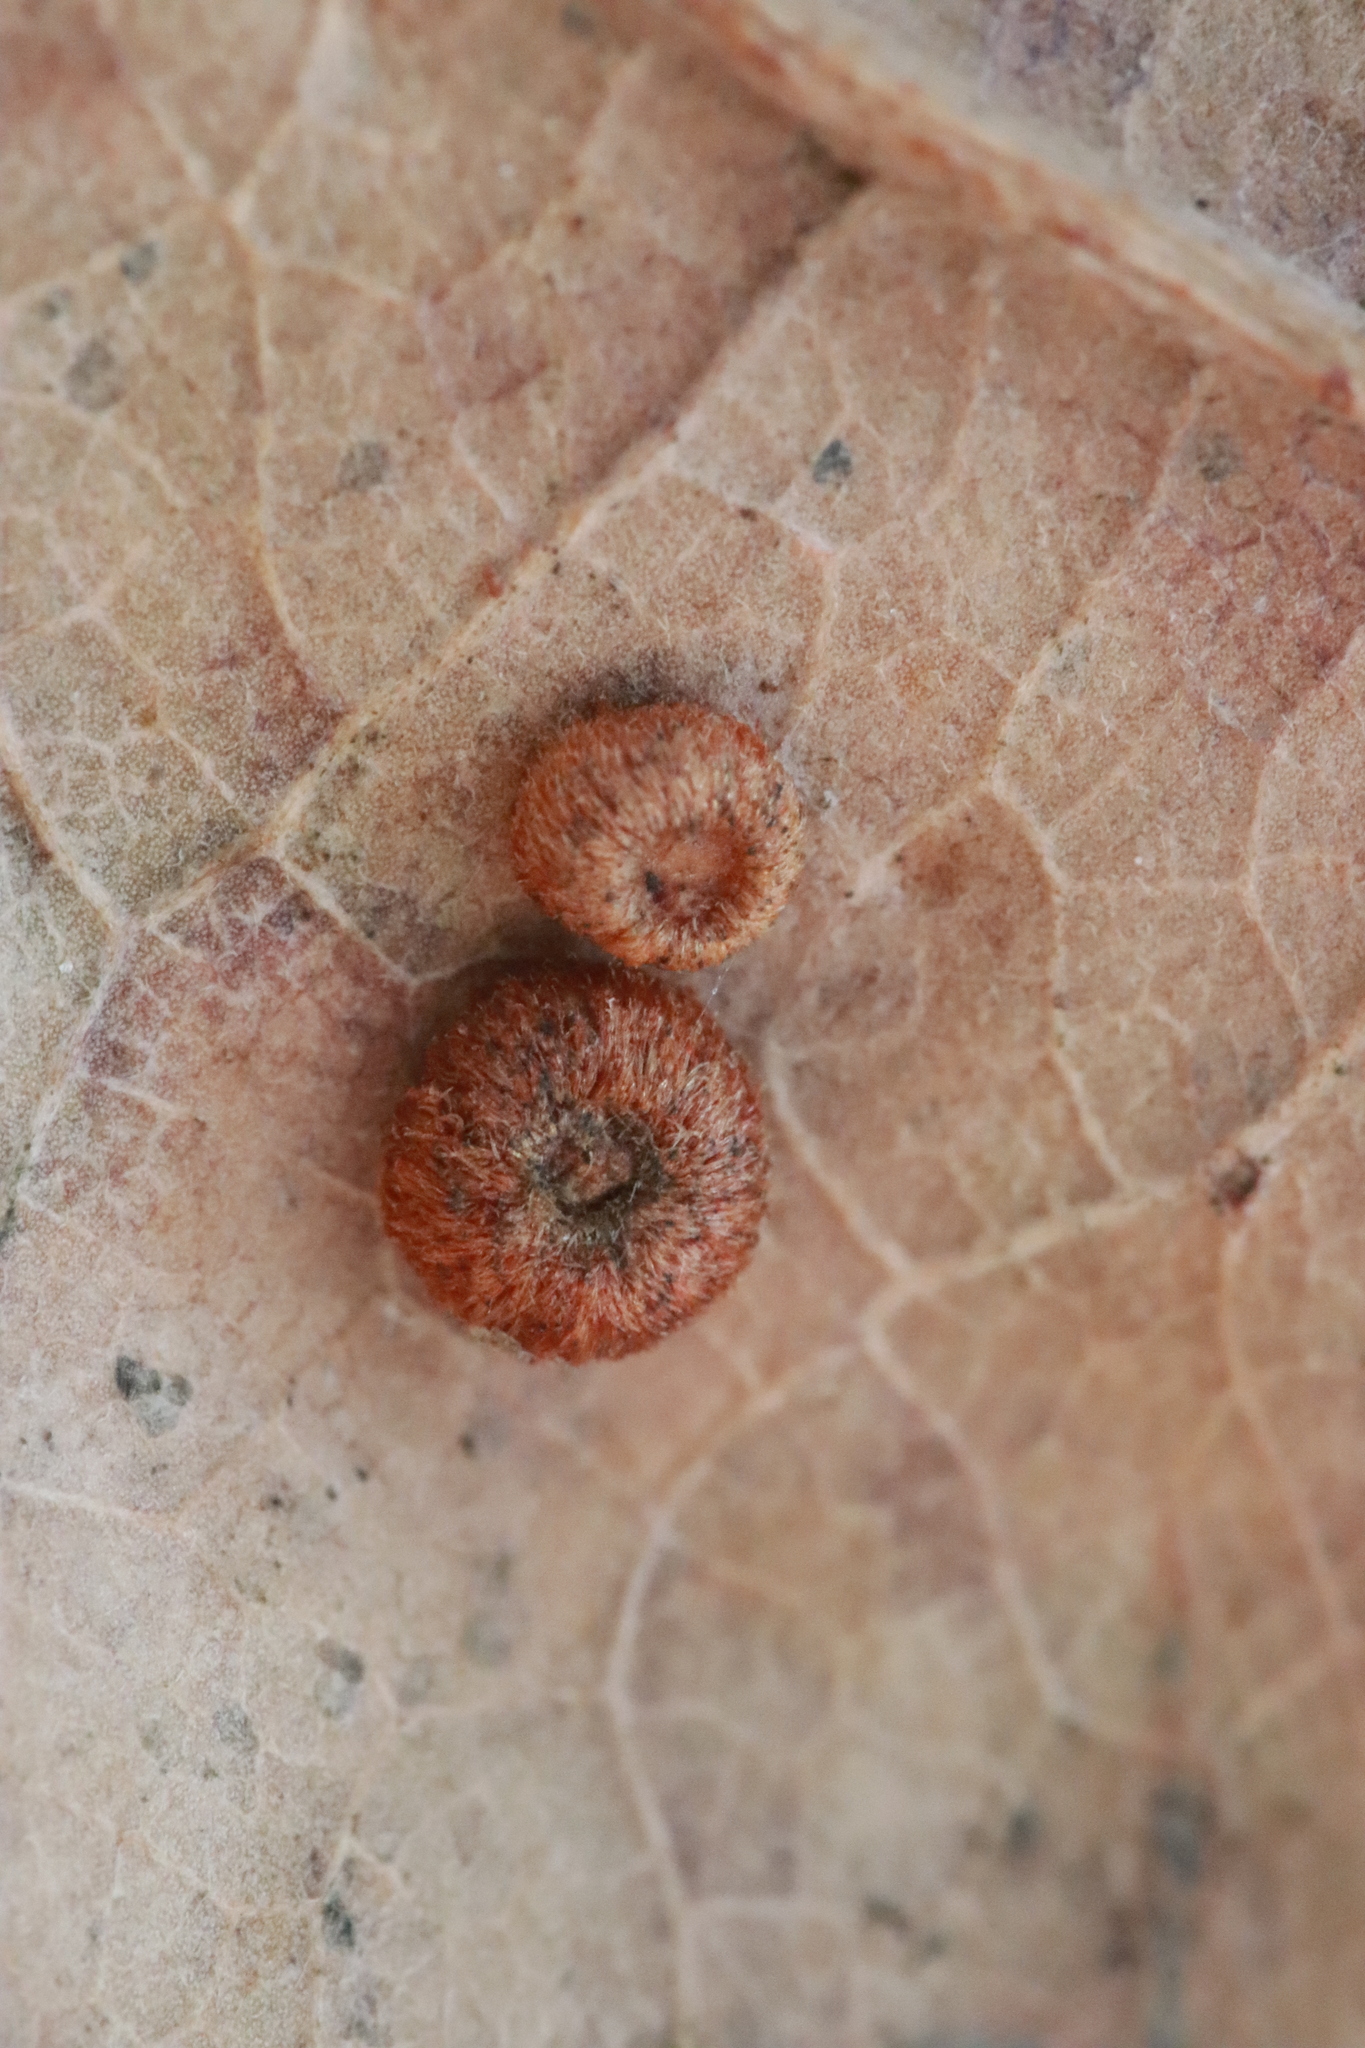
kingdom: Animalia
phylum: Arthropoda
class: Insecta
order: Hymenoptera
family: Cynipidae
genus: Neuroterus
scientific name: Neuroterus numismalis
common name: Silk-button spangle gall
